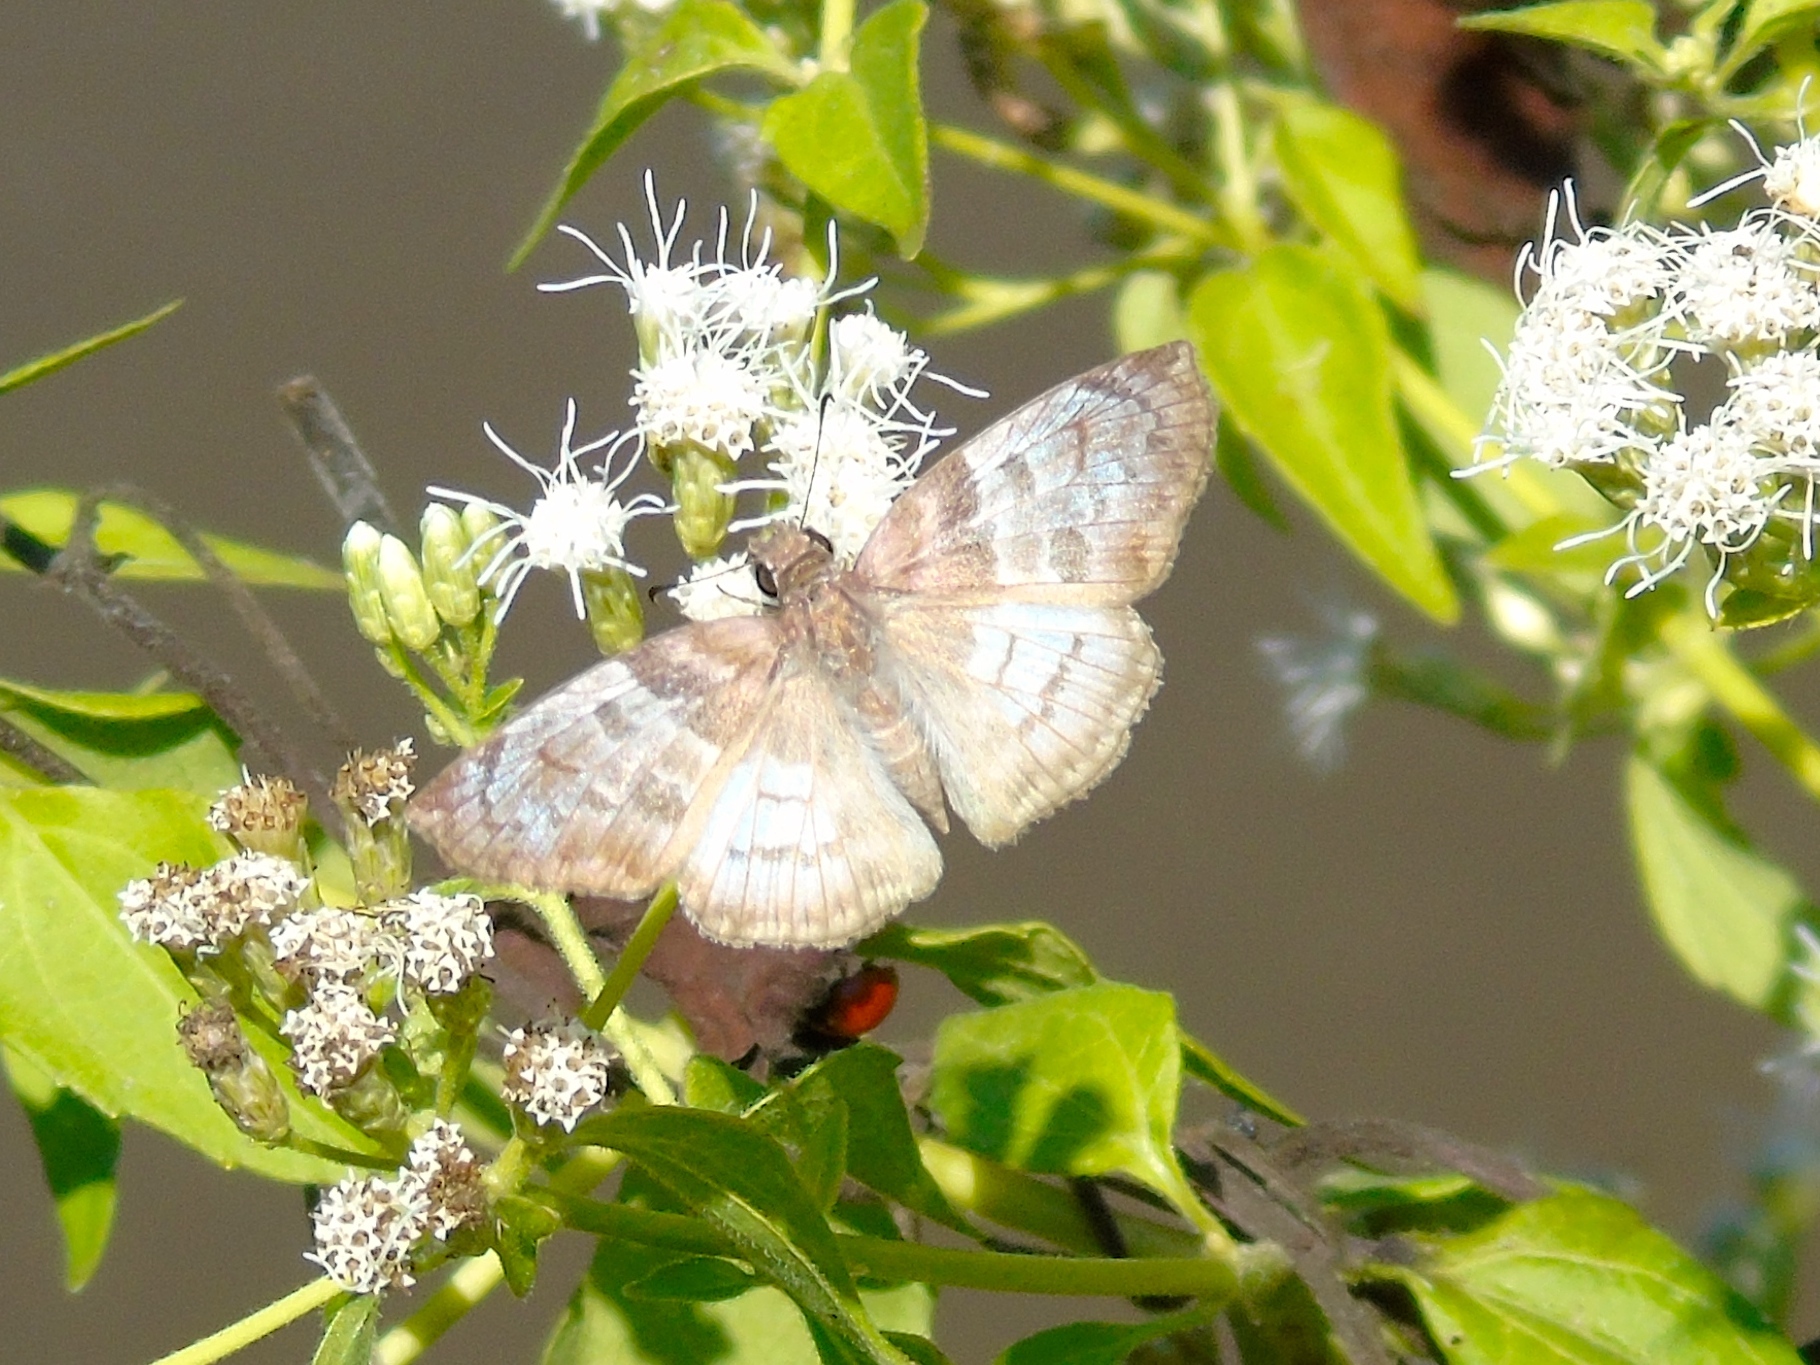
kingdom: Animalia
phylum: Arthropoda
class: Insecta
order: Lepidoptera
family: Hesperiidae
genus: Mylon
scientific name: Mylon pelopidas
